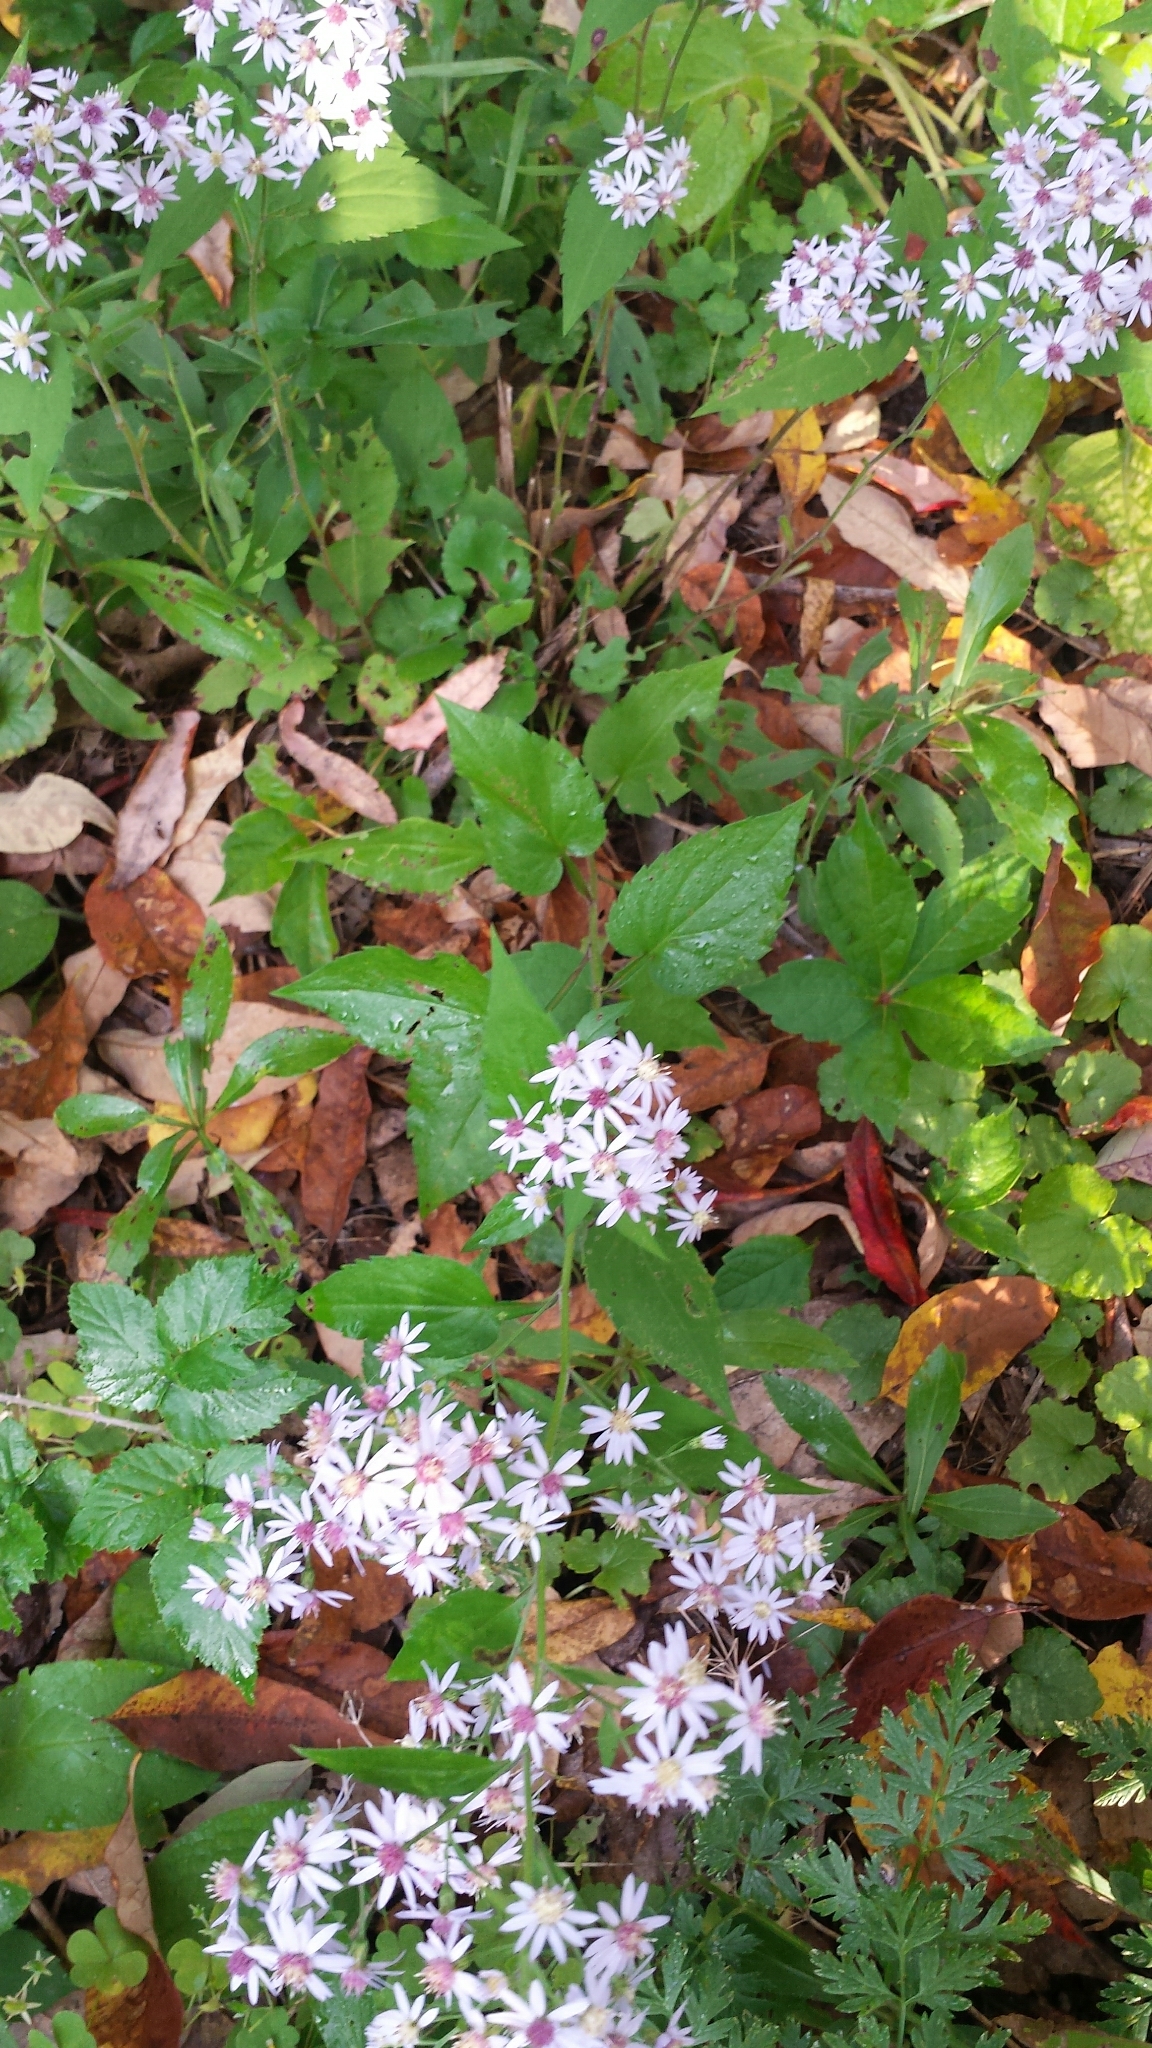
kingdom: Plantae
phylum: Tracheophyta
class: Magnoliopsida
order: Asterales
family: Asteraceae
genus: Symphyotrichum
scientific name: Symphyotrichum cordifolium
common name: Beeweed
